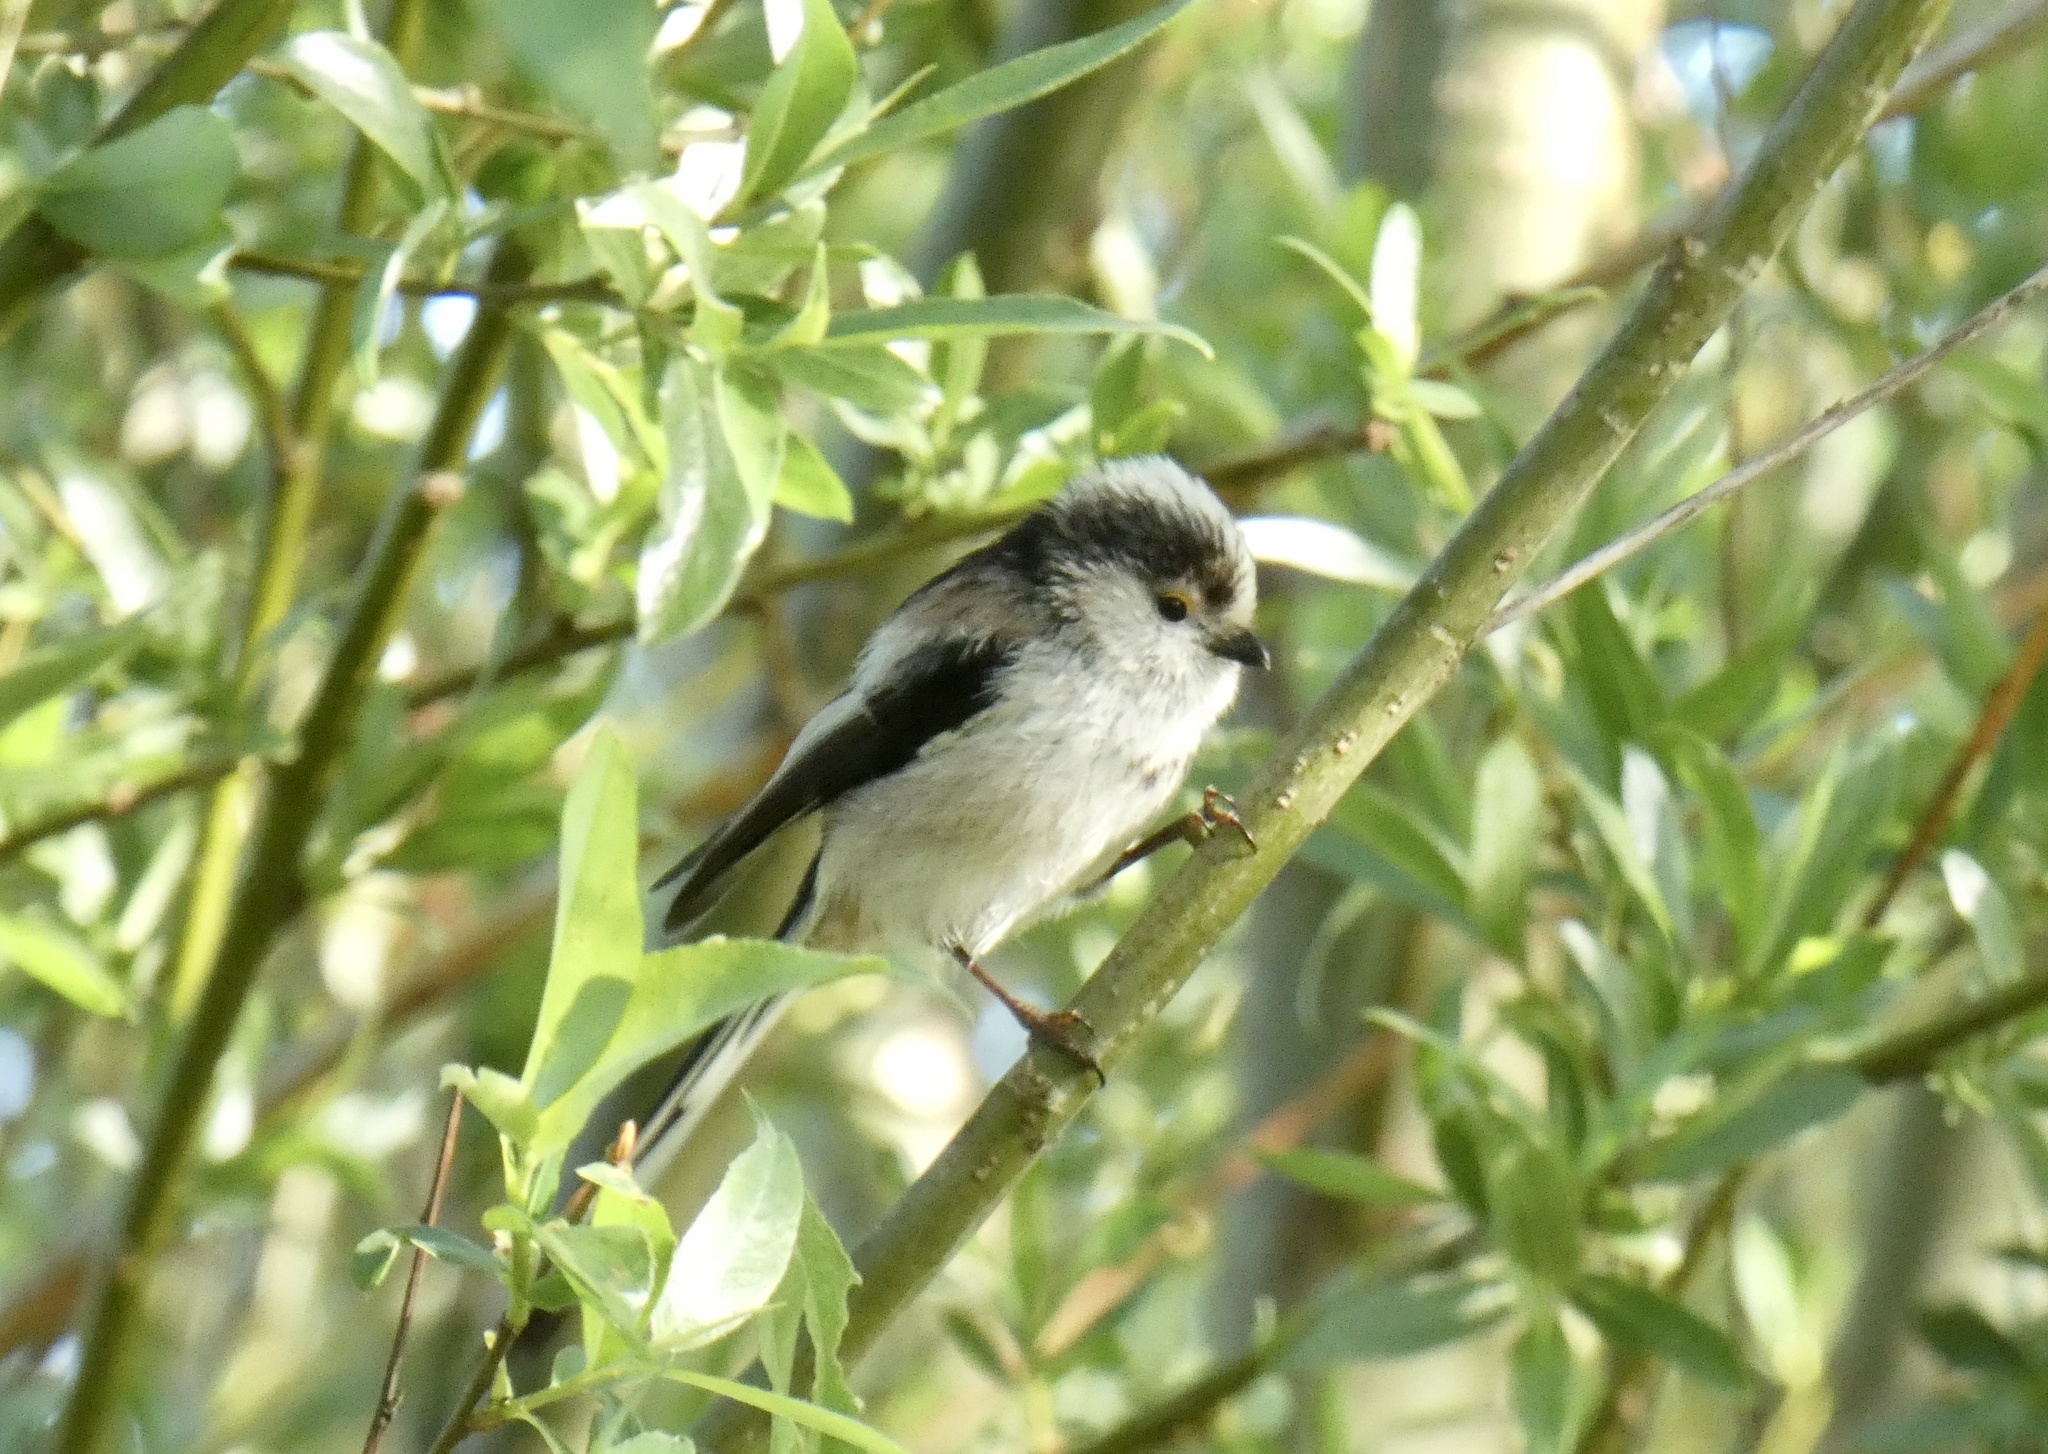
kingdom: Animalia
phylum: Chordata
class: Aves
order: Passeriformes
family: Aegithalidae
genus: Aegithalos
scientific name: Aegithalos caudatus
